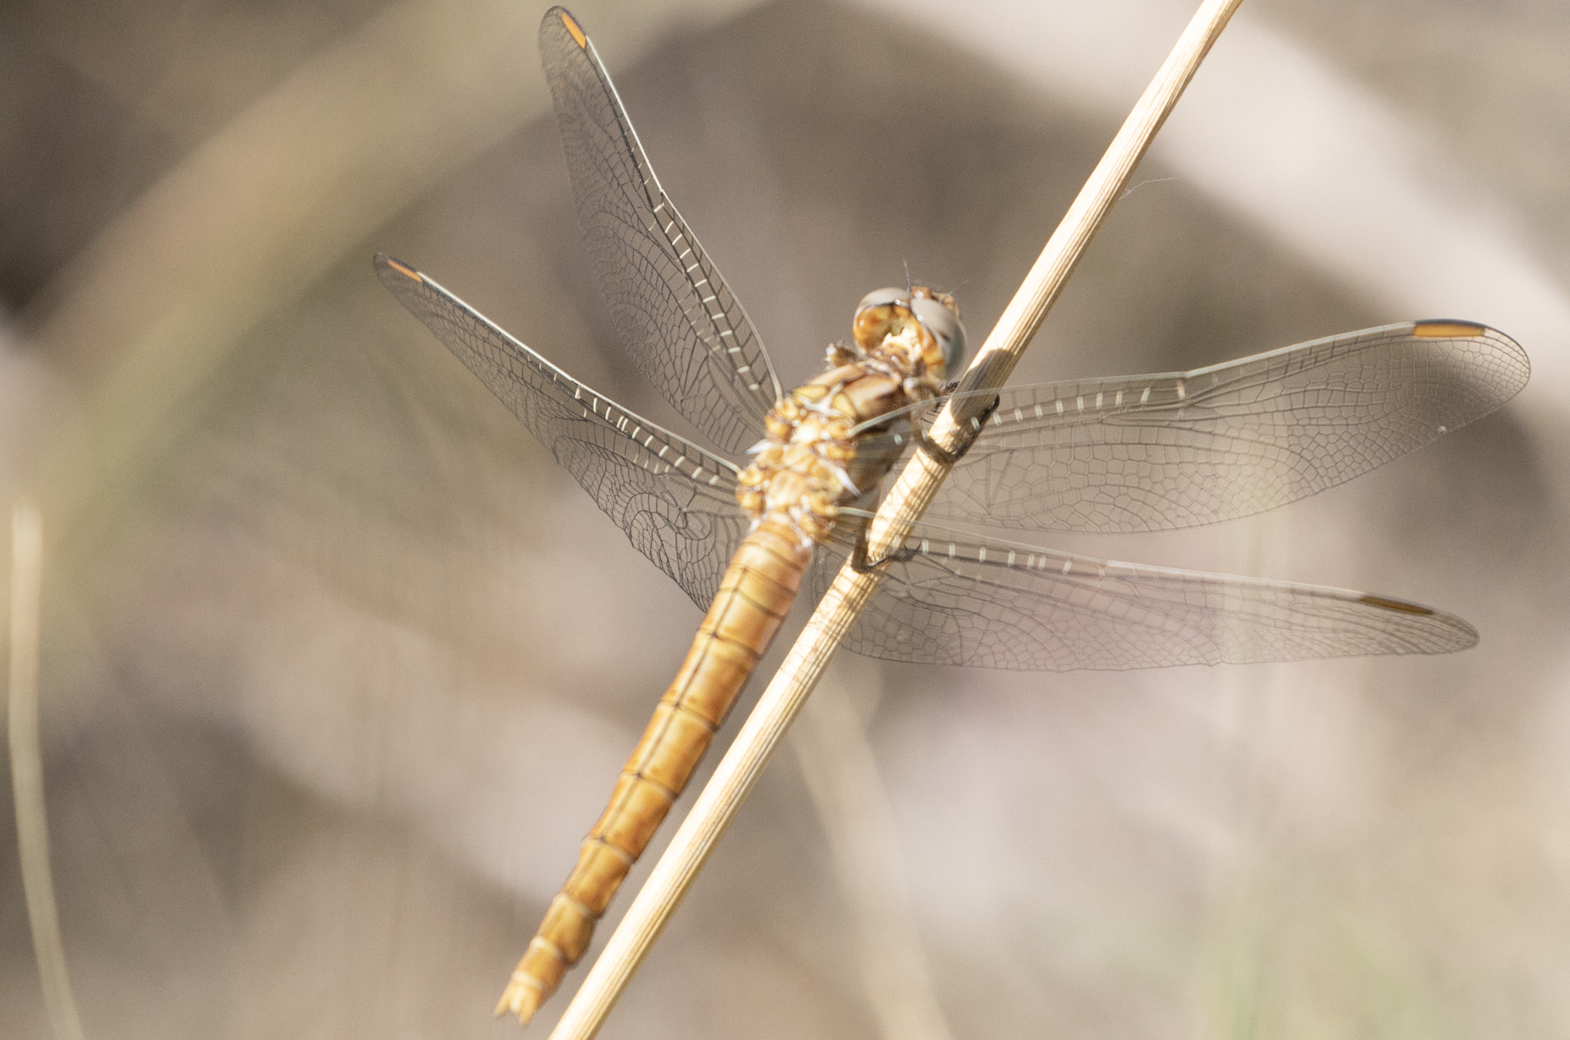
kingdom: Animalia
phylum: Arthropoda
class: Insecta
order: Odonata
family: Libellulidae
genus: Orthetrum
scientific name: Orthetrum brunneum
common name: Southern skimmer
